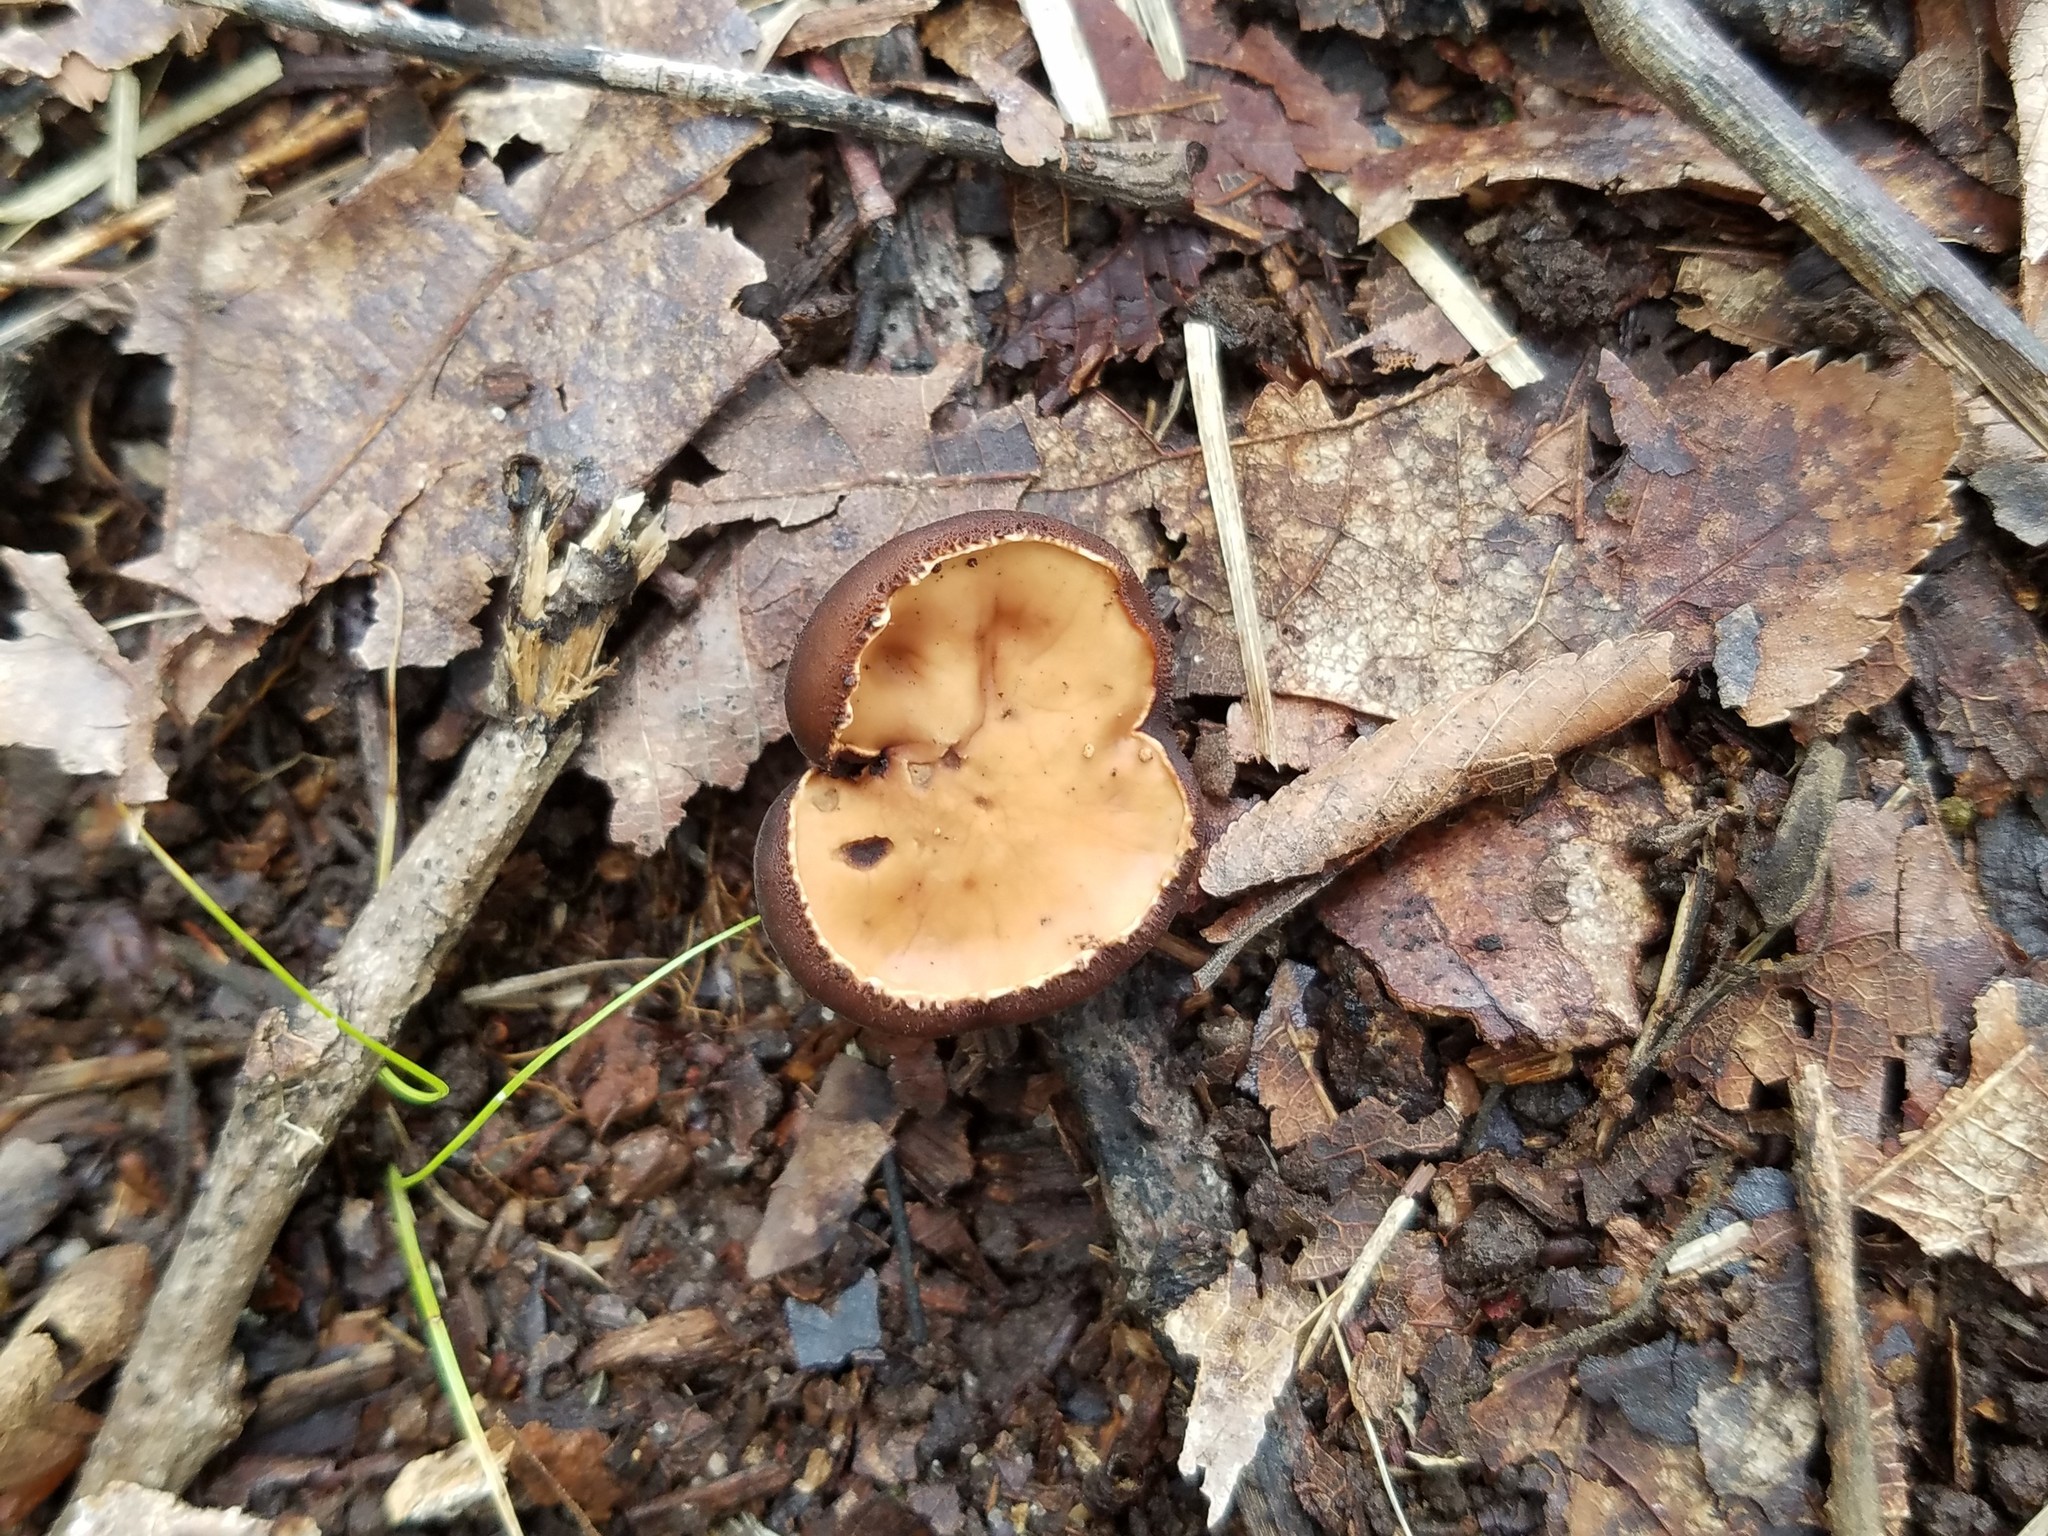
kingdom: Fungi
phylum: Ascomycota
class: Pezizomycetes
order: Pezizales
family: Sarcosomataceae
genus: Galiella
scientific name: Galiella rufa
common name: Hairy rubber cup
